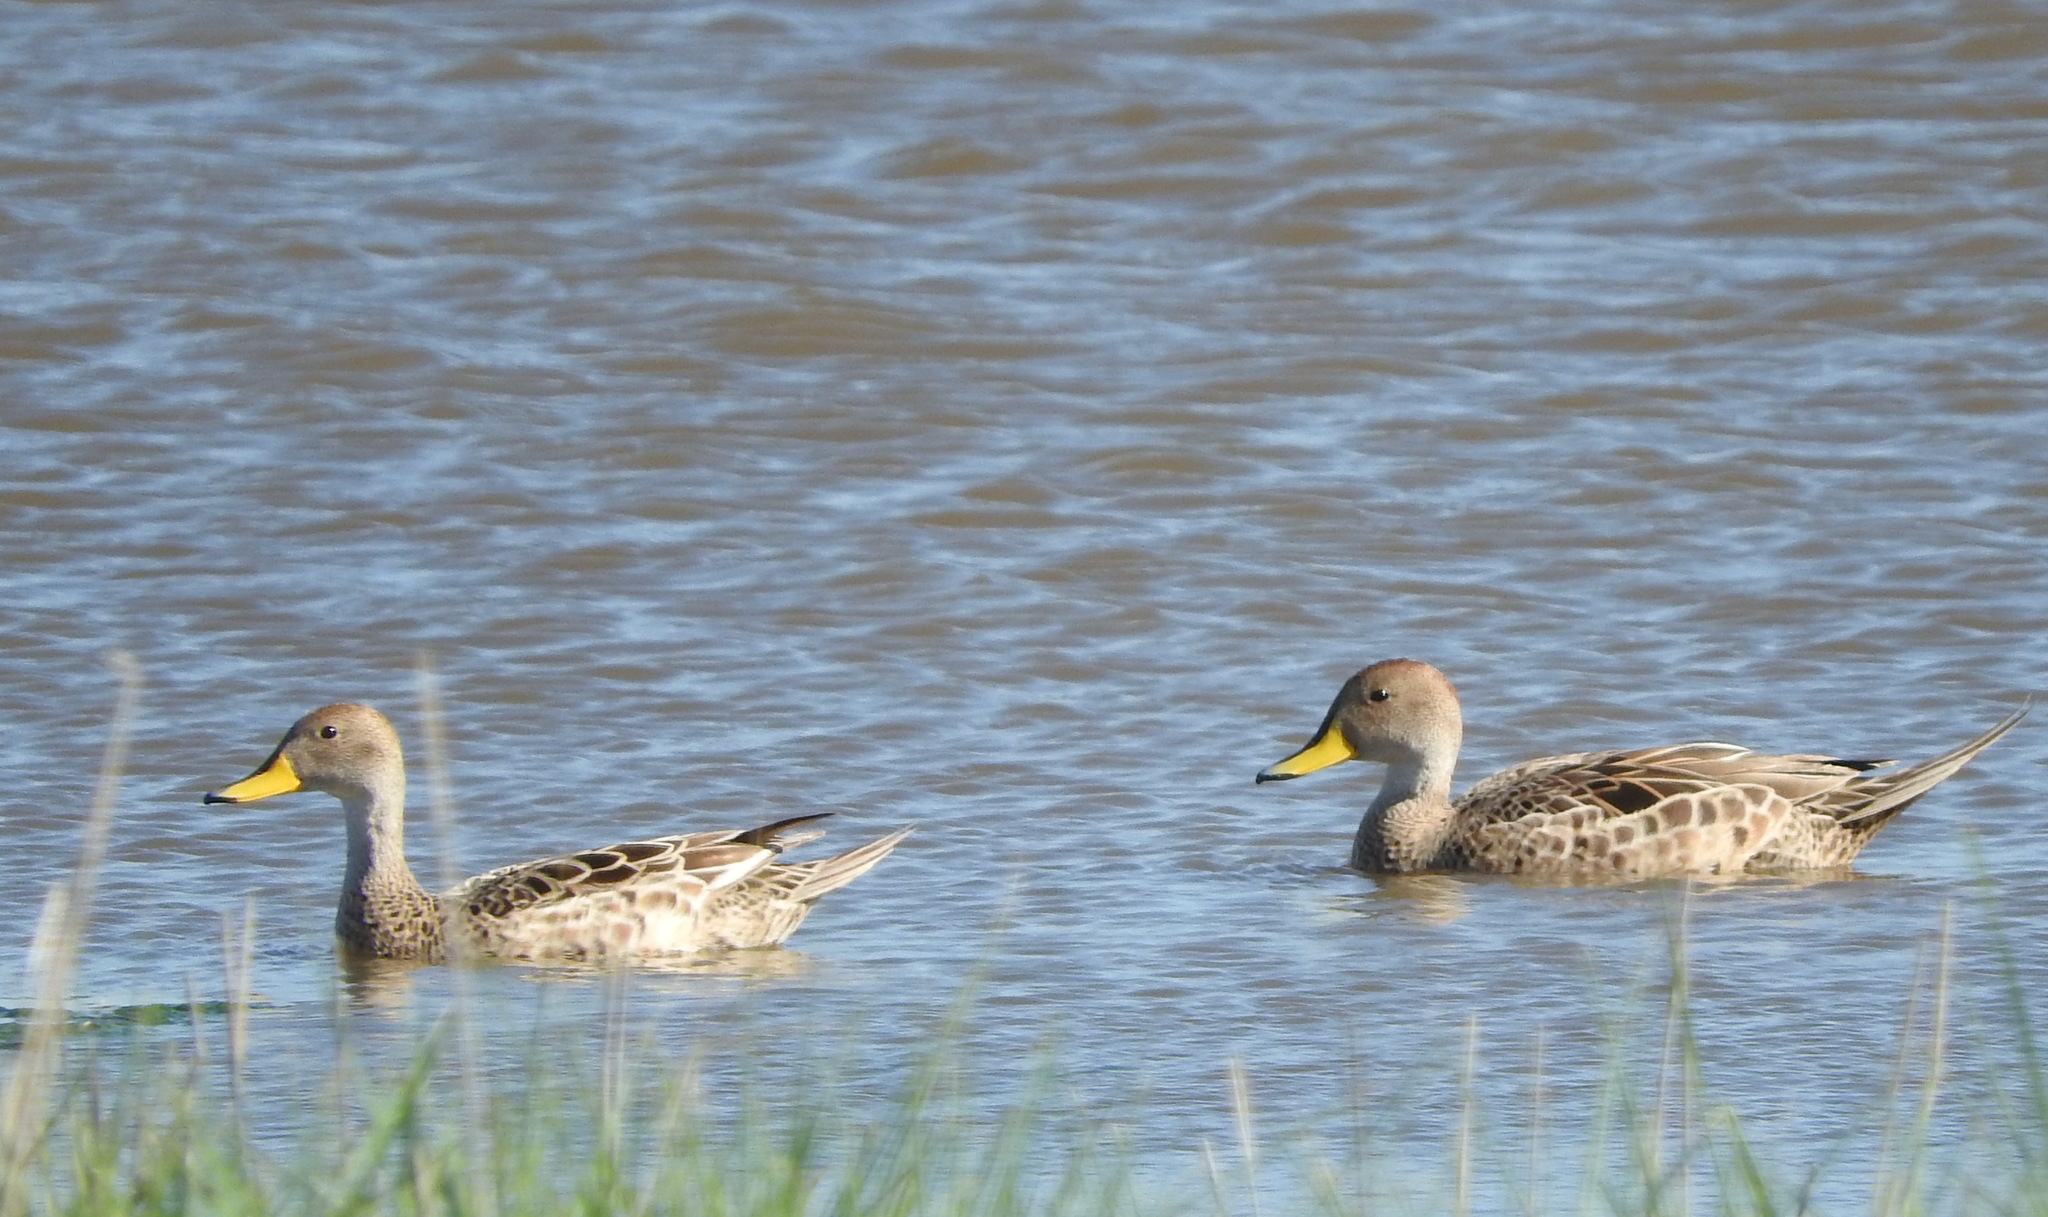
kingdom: Animalia
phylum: Chordata
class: Aves
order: Anseriformes
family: Anatidae
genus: Anas
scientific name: Anas georgica
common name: Yellow-billed pintail
